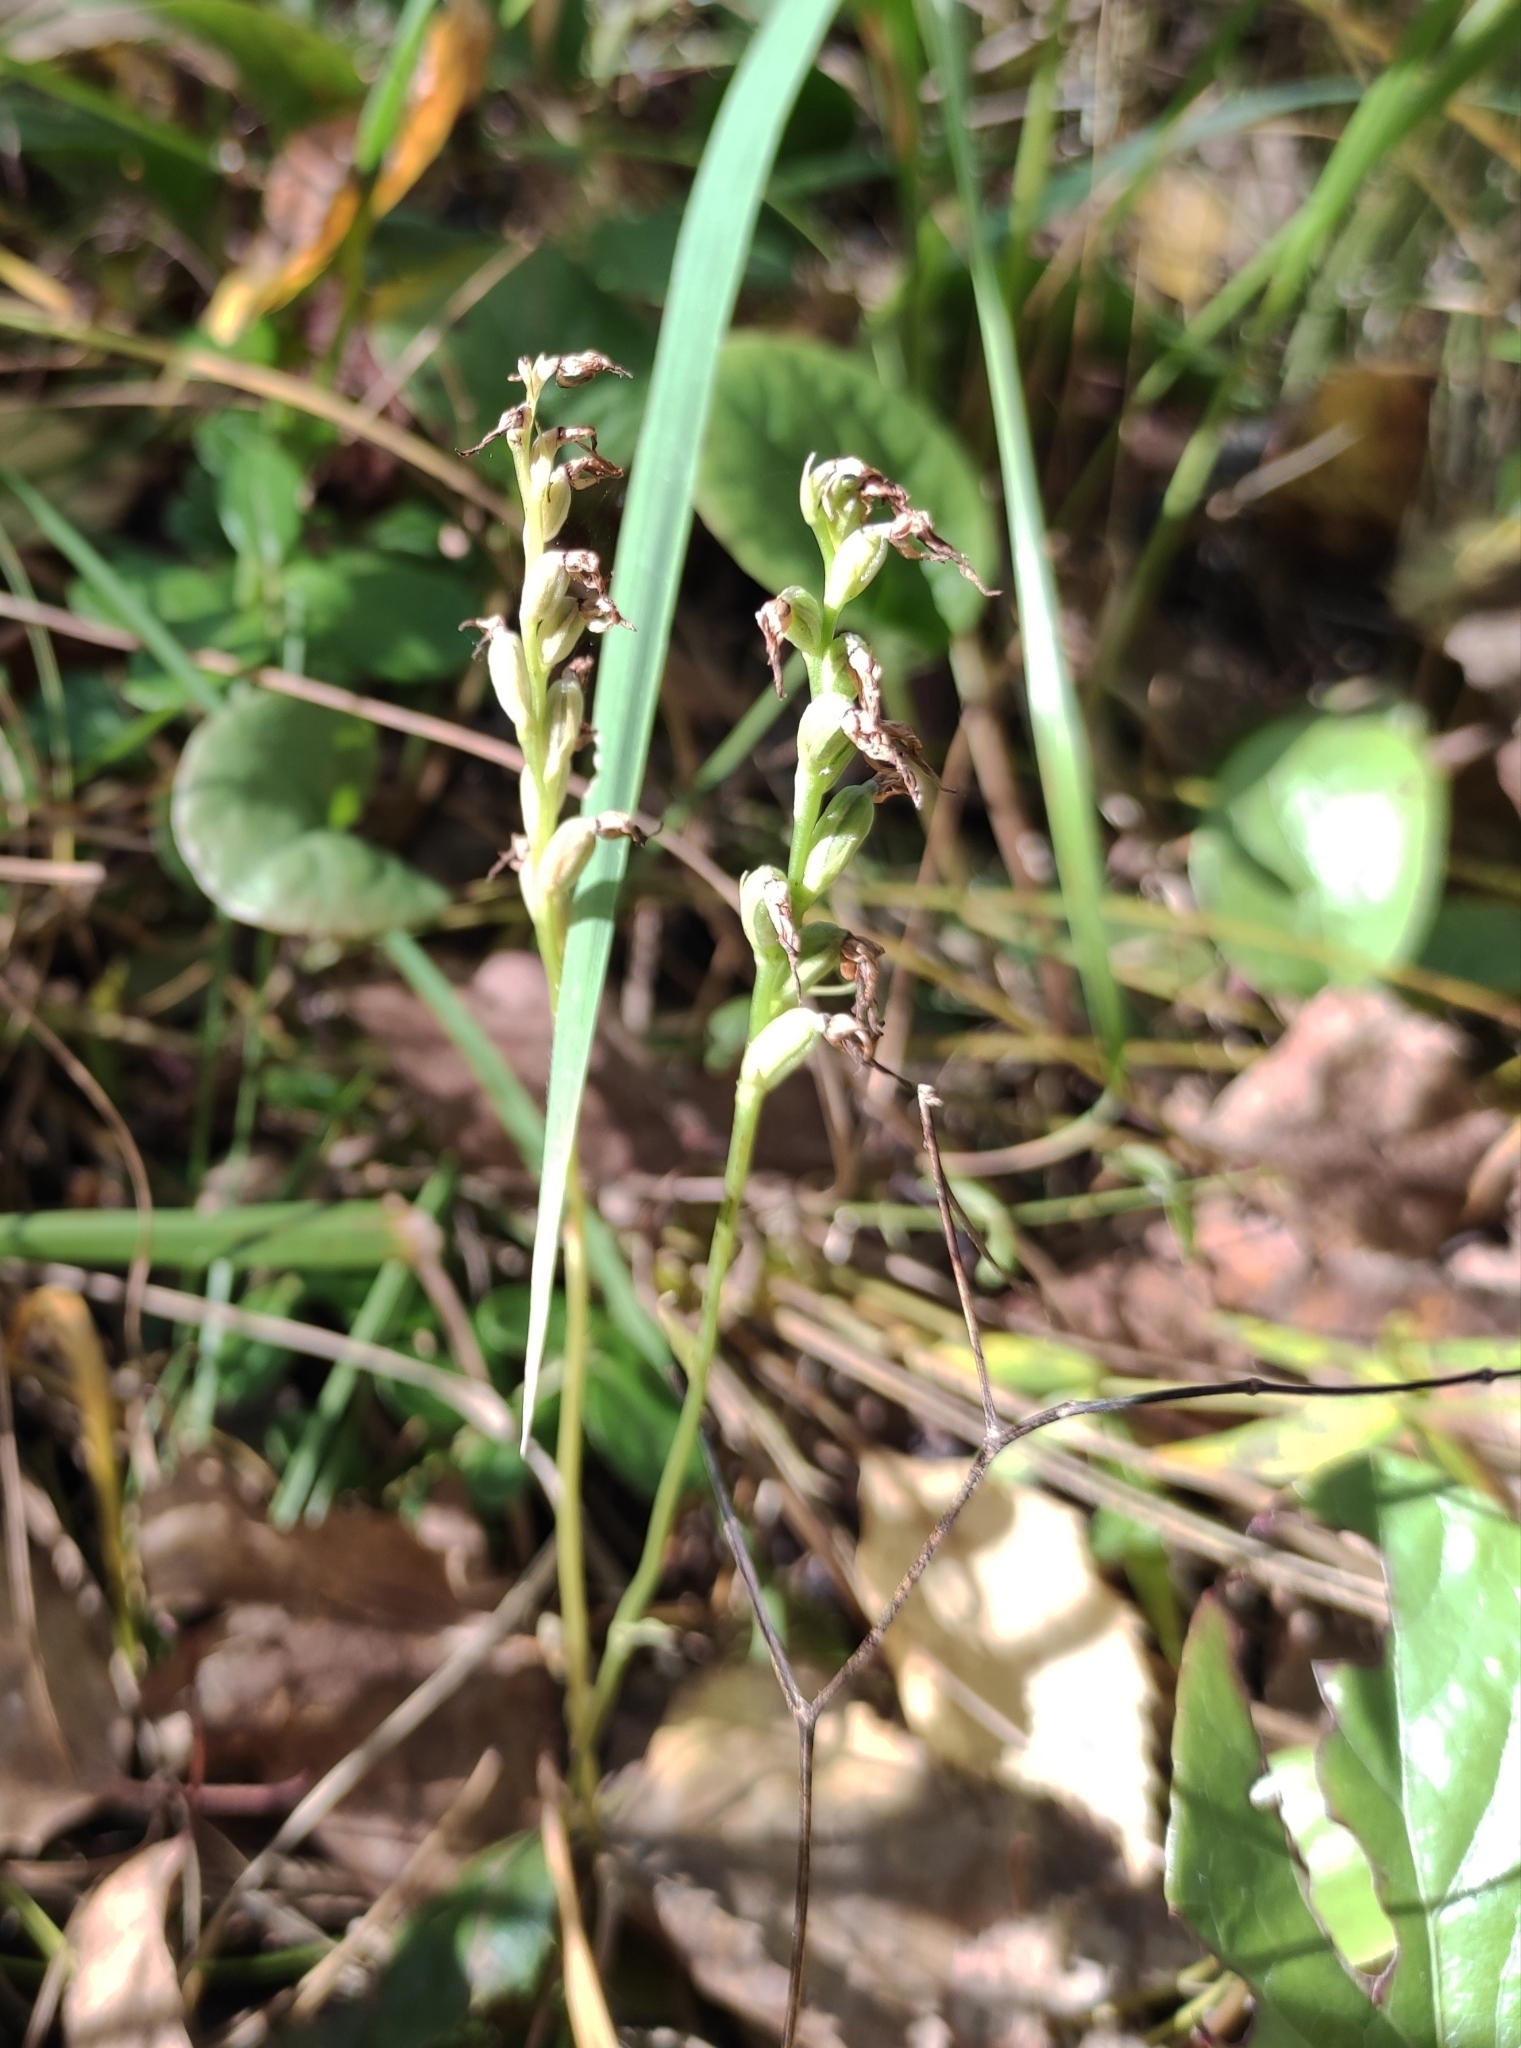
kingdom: Plantae
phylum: Tracheophyta
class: Liliopsida
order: Asparagales
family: Orchidaceae
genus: Hemipilia
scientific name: Hemipilia cucullata
